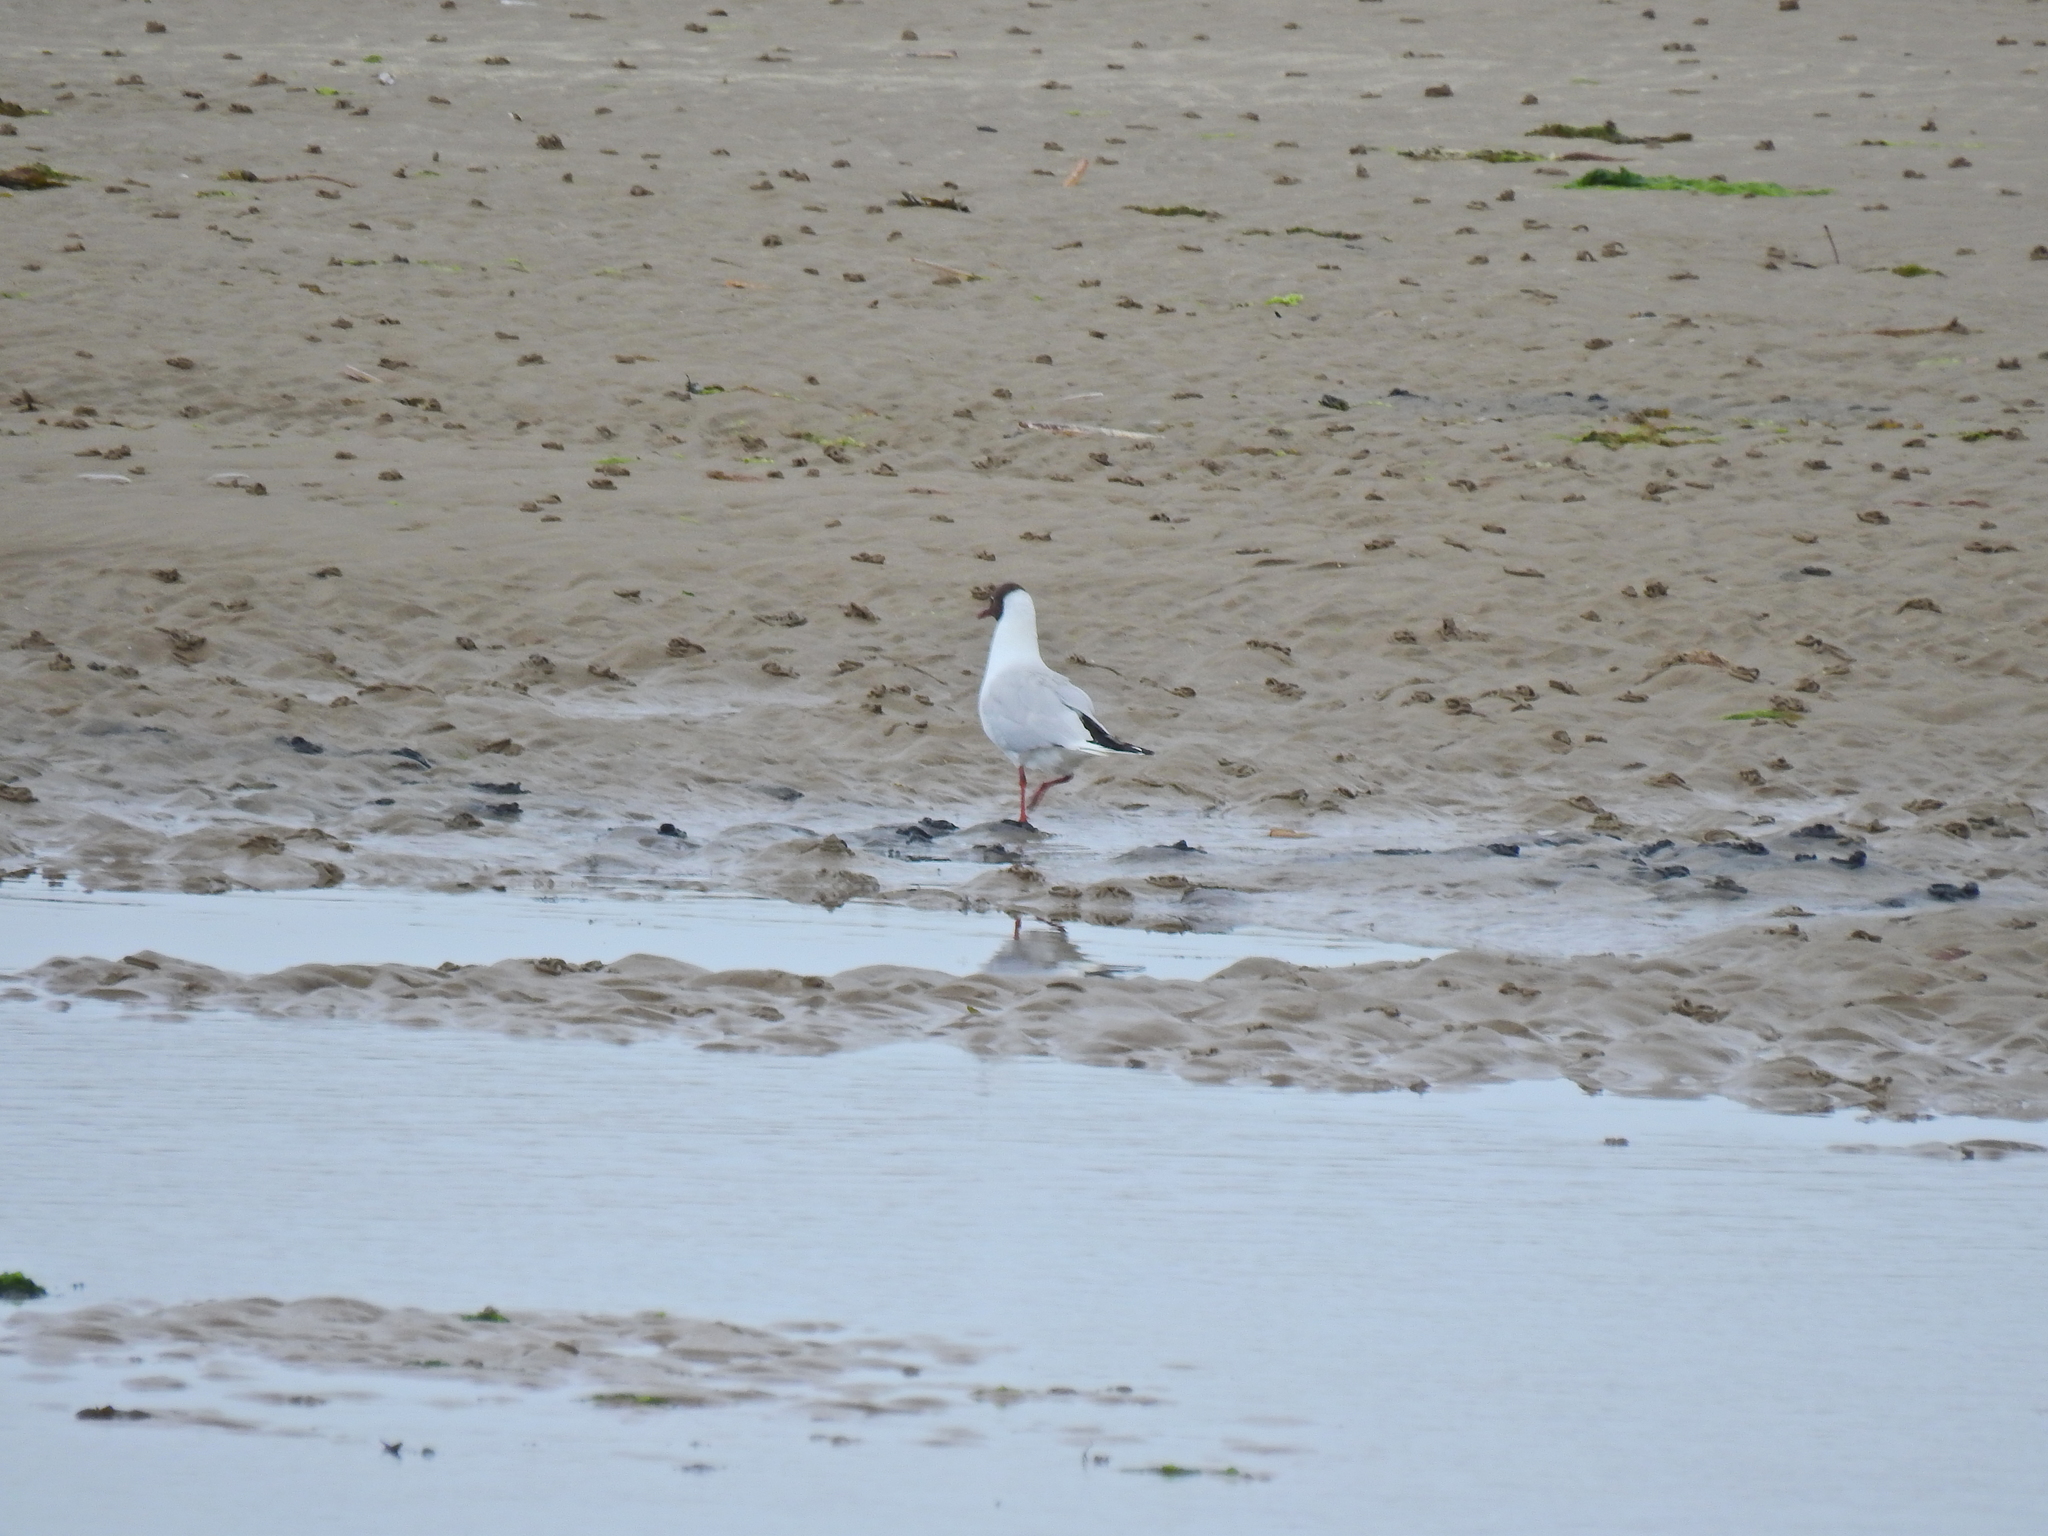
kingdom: Animalia
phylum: Chordata
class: Aves
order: Charadriiformes
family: Laridae
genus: Chroicocephalus
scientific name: Chroicocephalus ridibundus
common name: Black-headed gull
